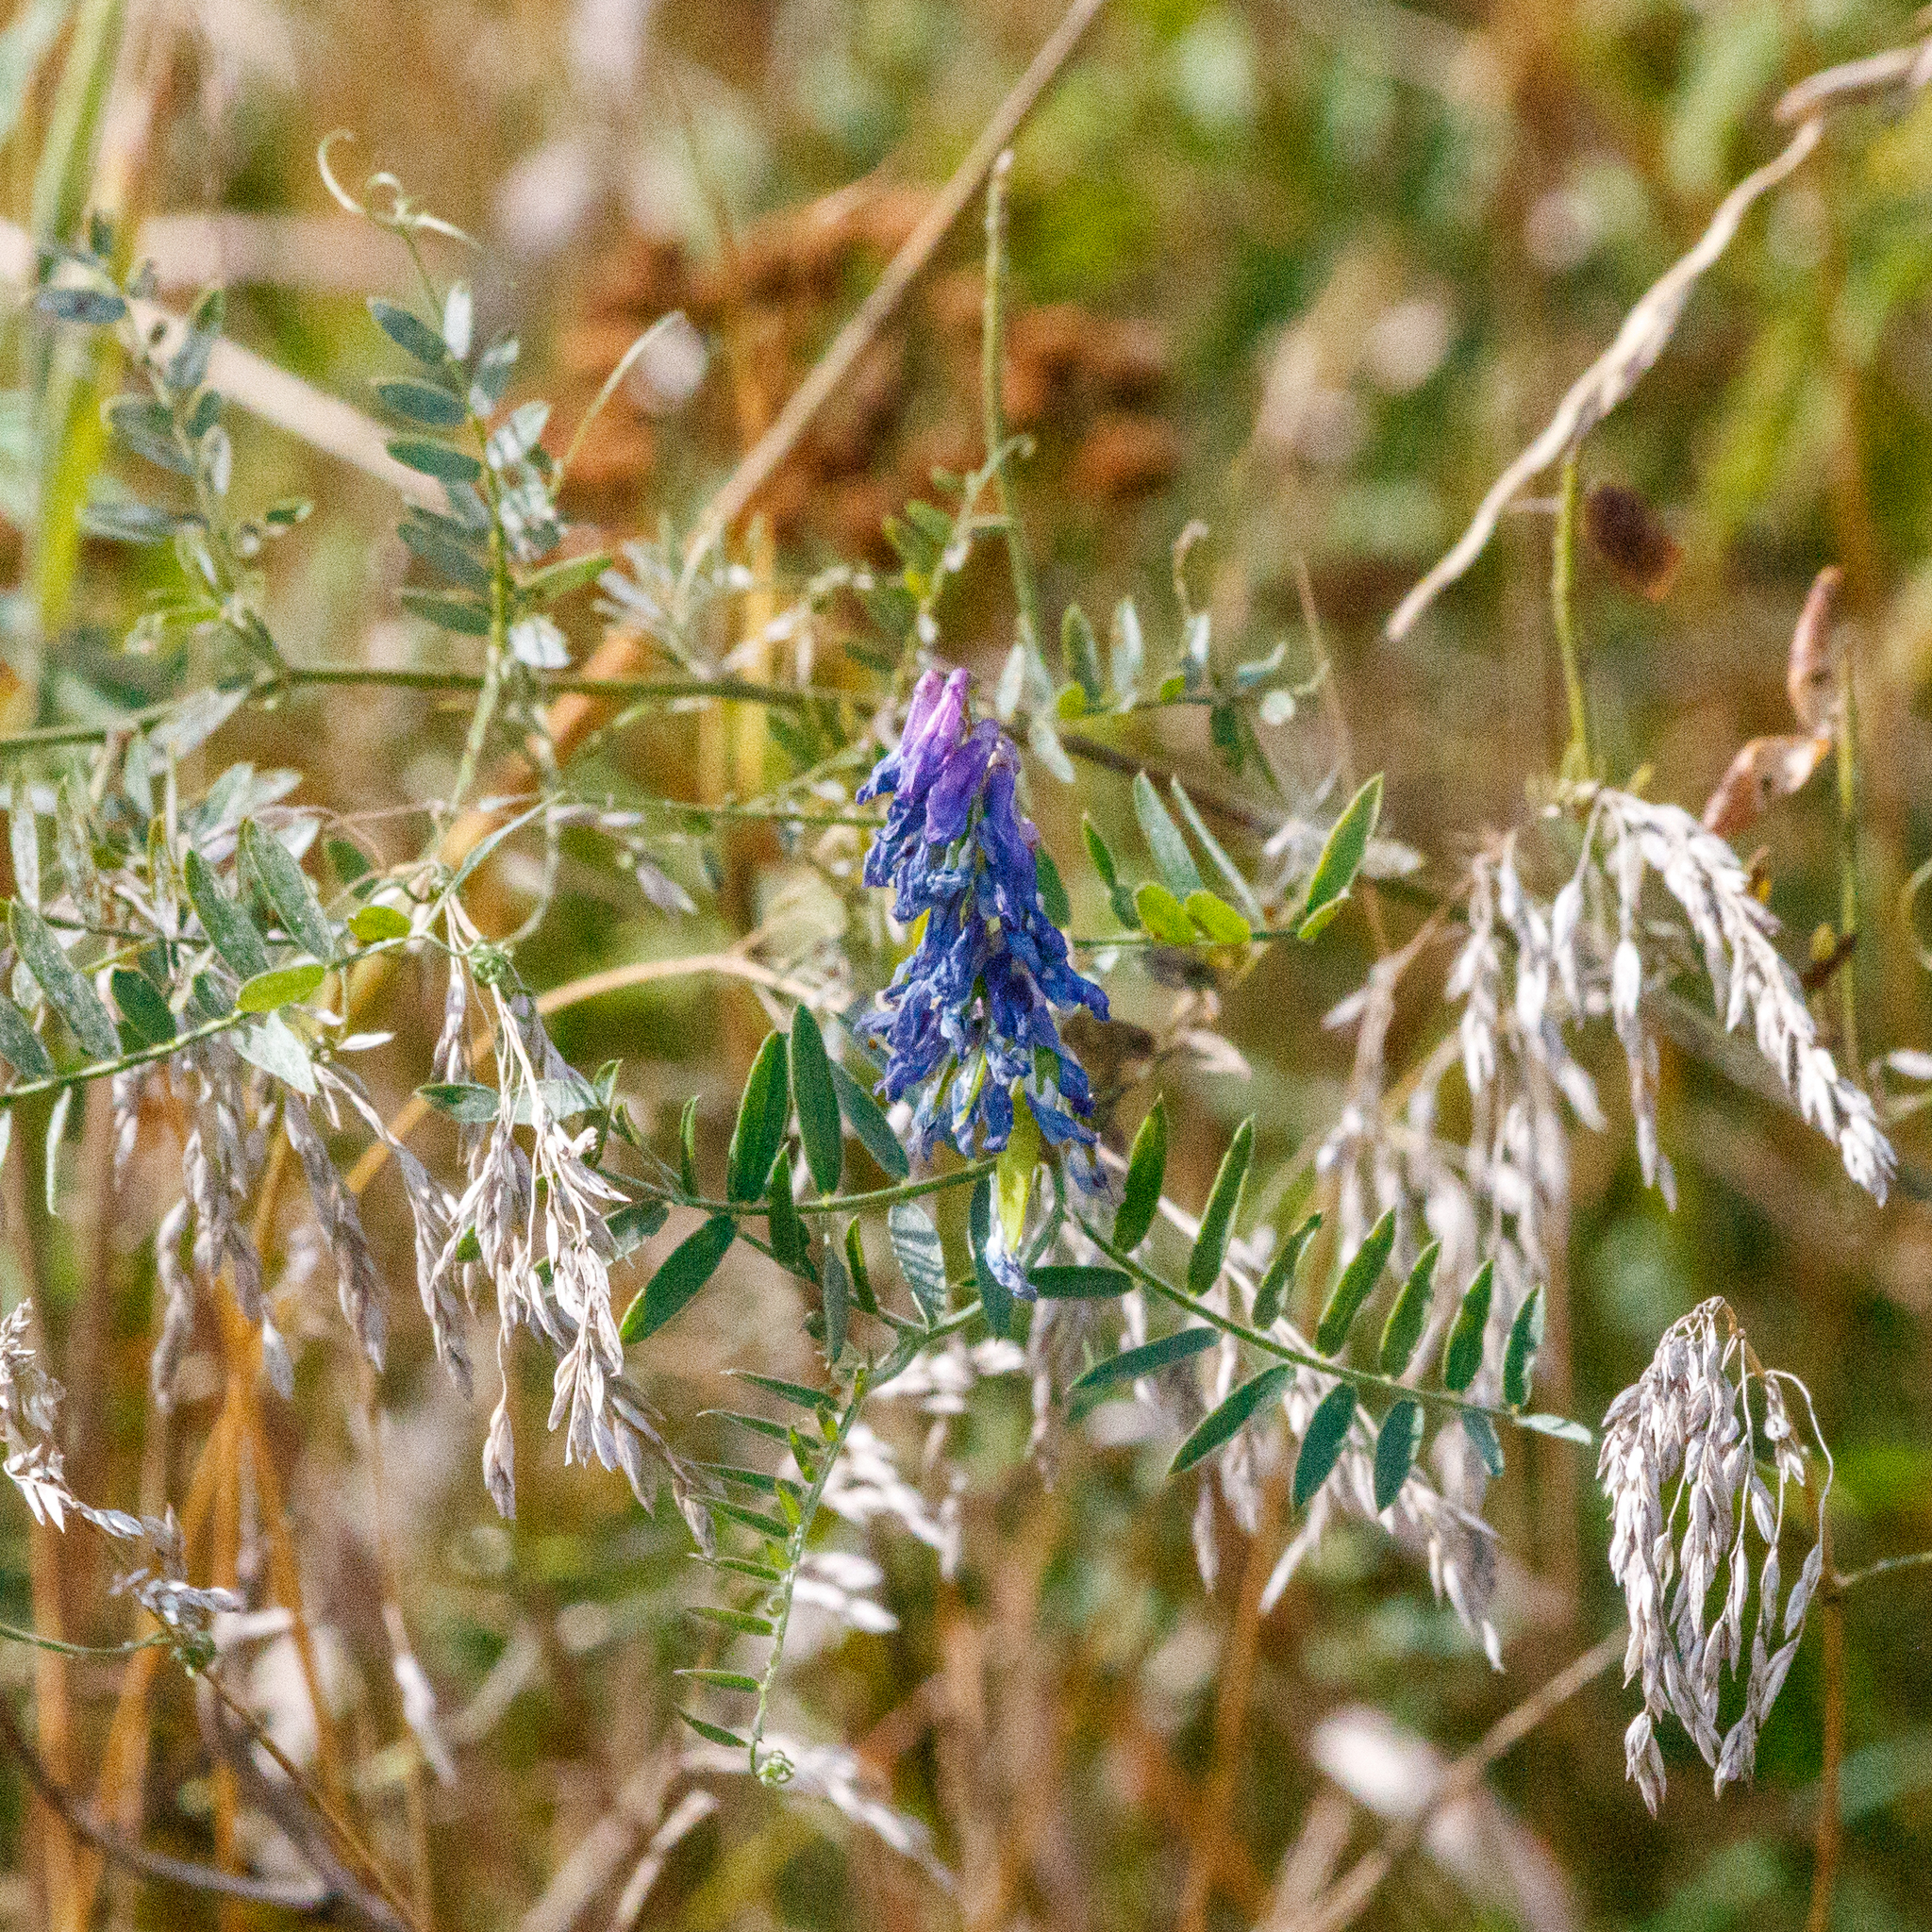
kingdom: Plantae
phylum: Tracheophyta
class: Magnoliopsida
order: Fabales
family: Fabaceae
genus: Vicia
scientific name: Vicia cracca
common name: Bird vetch
